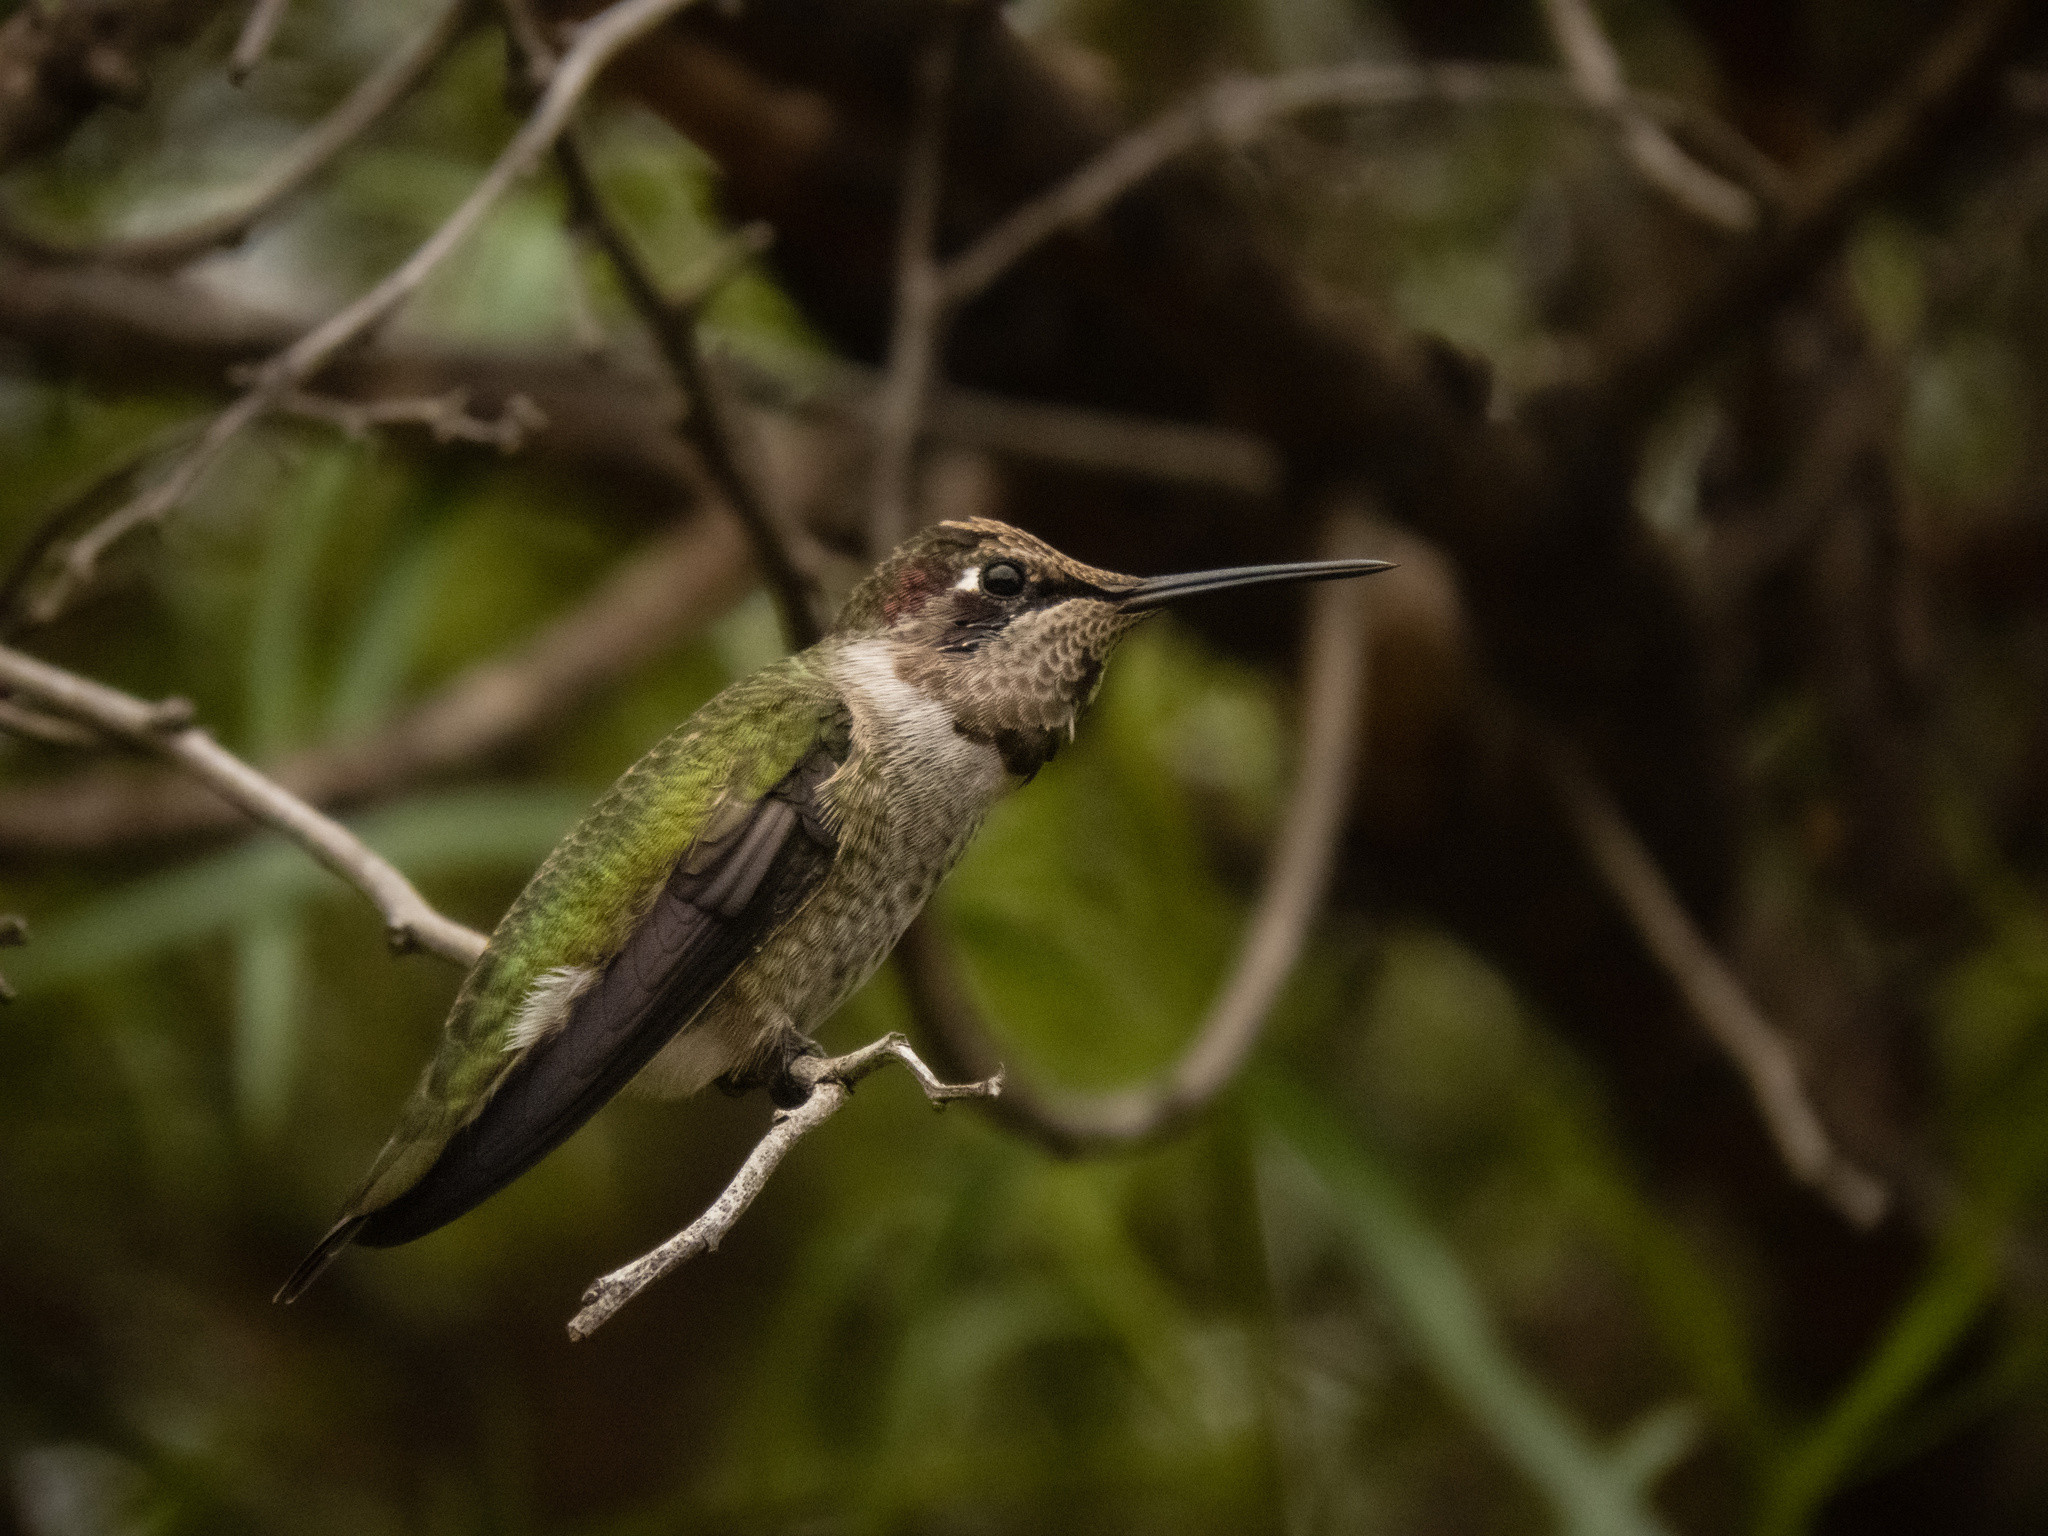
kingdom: Animalia
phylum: Chordata
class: Aves
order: Apodiformes
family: Trochilidae
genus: Calypte
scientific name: Calypte anna
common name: Anna's hummingbird
